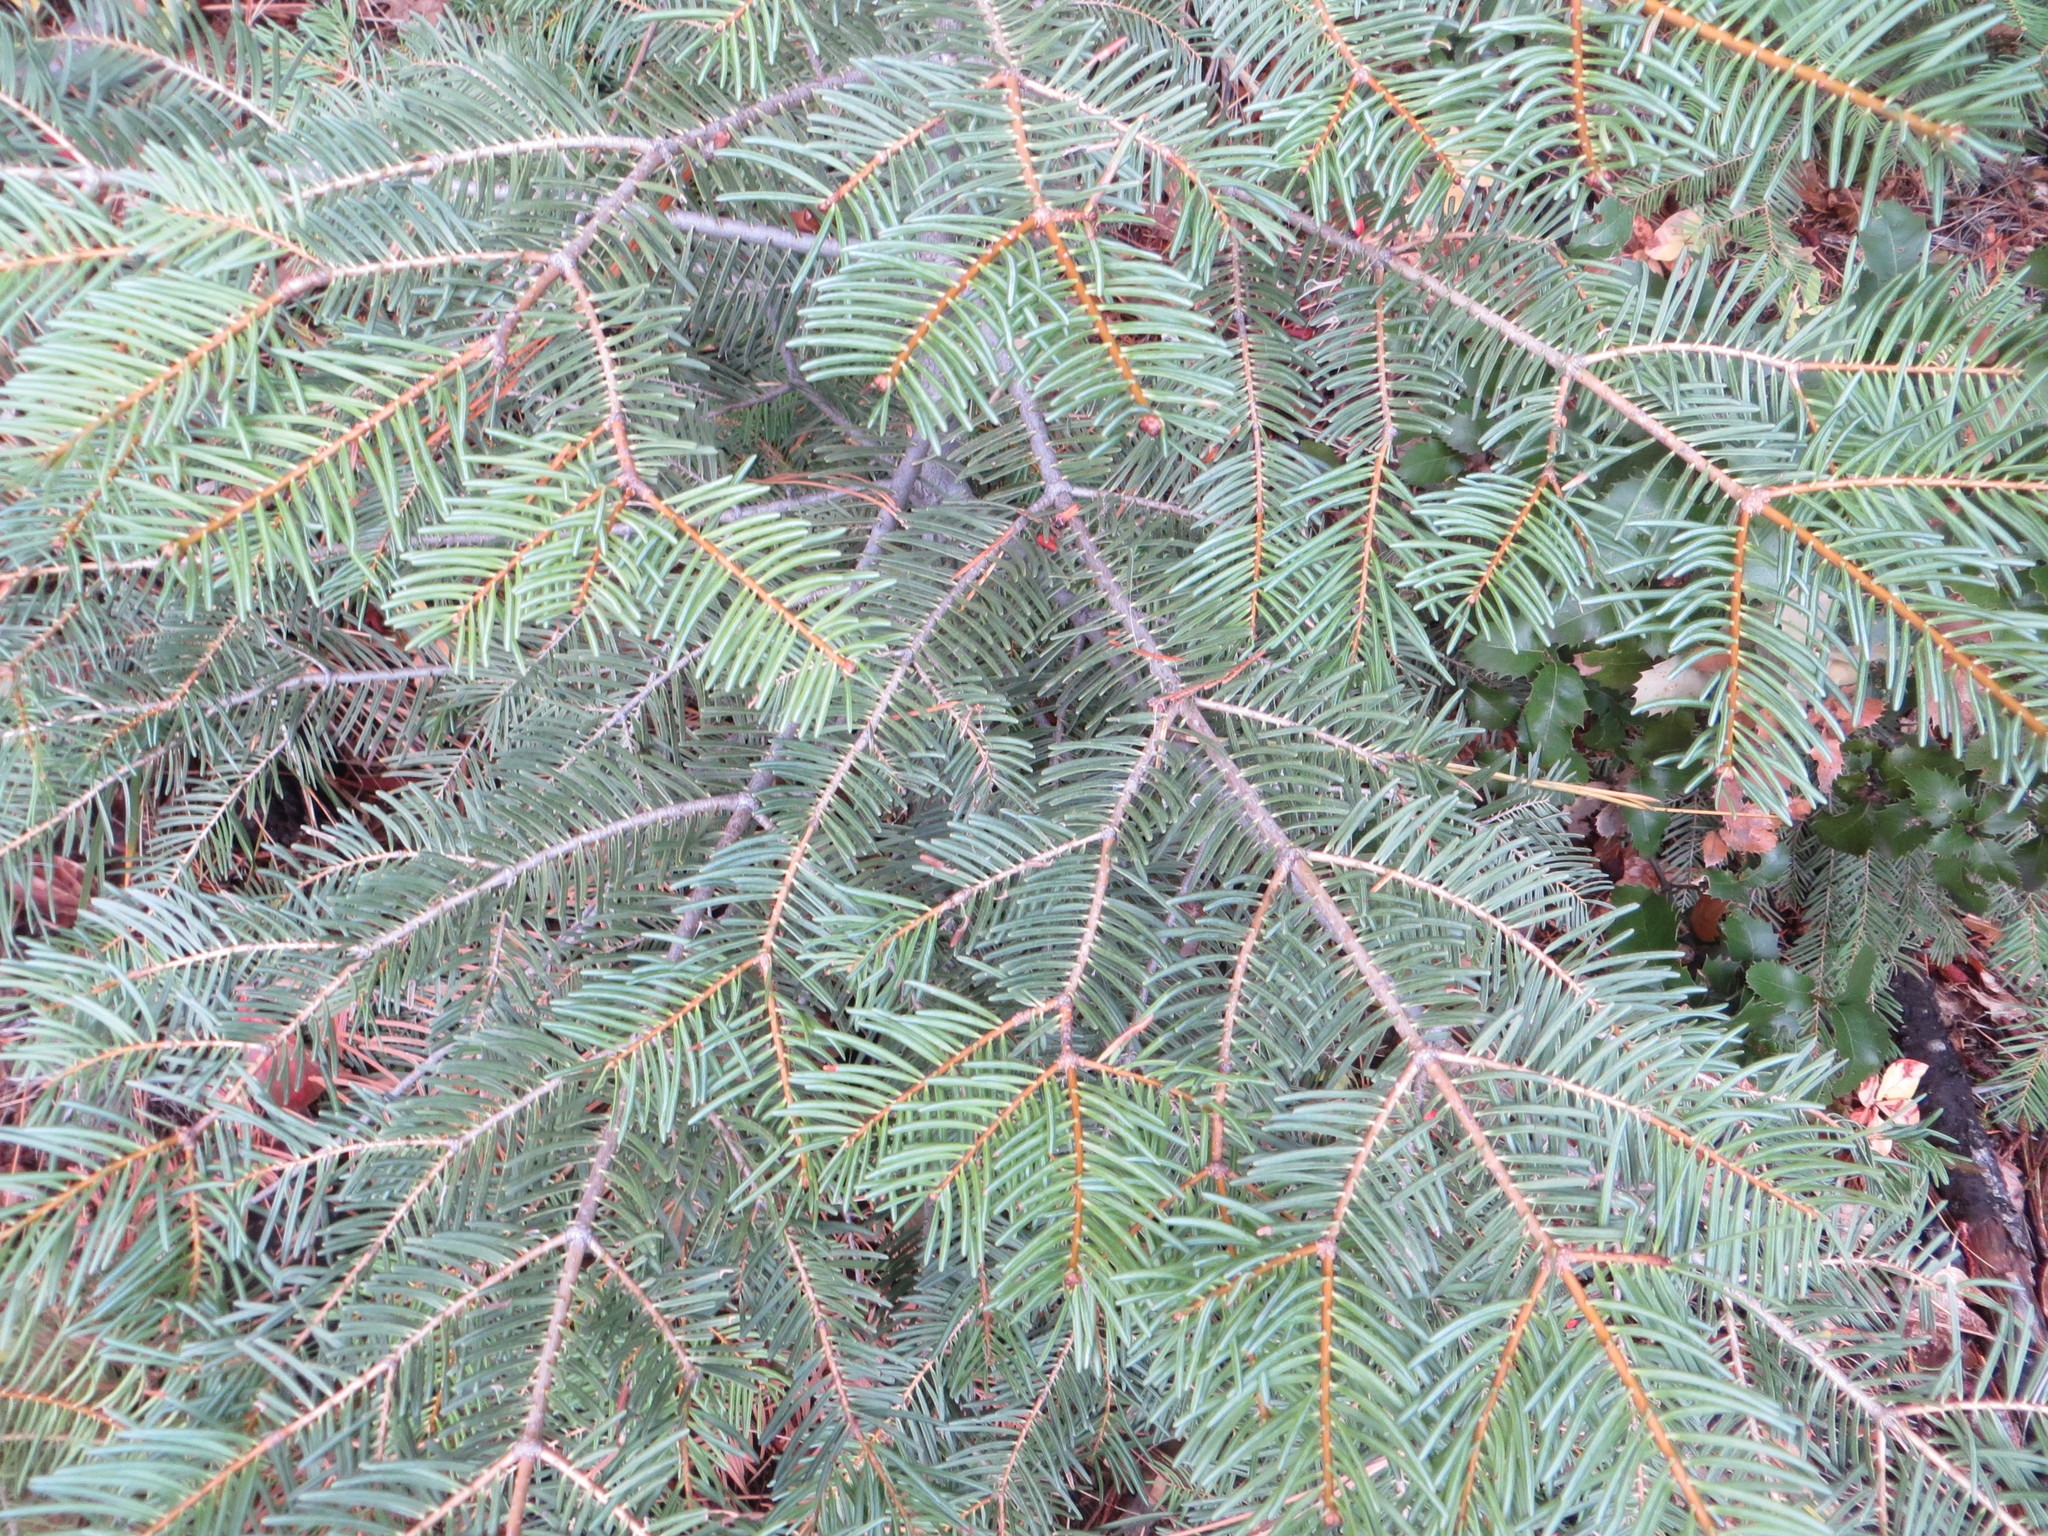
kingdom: Plantae
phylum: Tracheophyta
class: Pinopsida
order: Pinales
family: Pinaceae
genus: Abies
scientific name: Abies concolor
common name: Colorado fir
